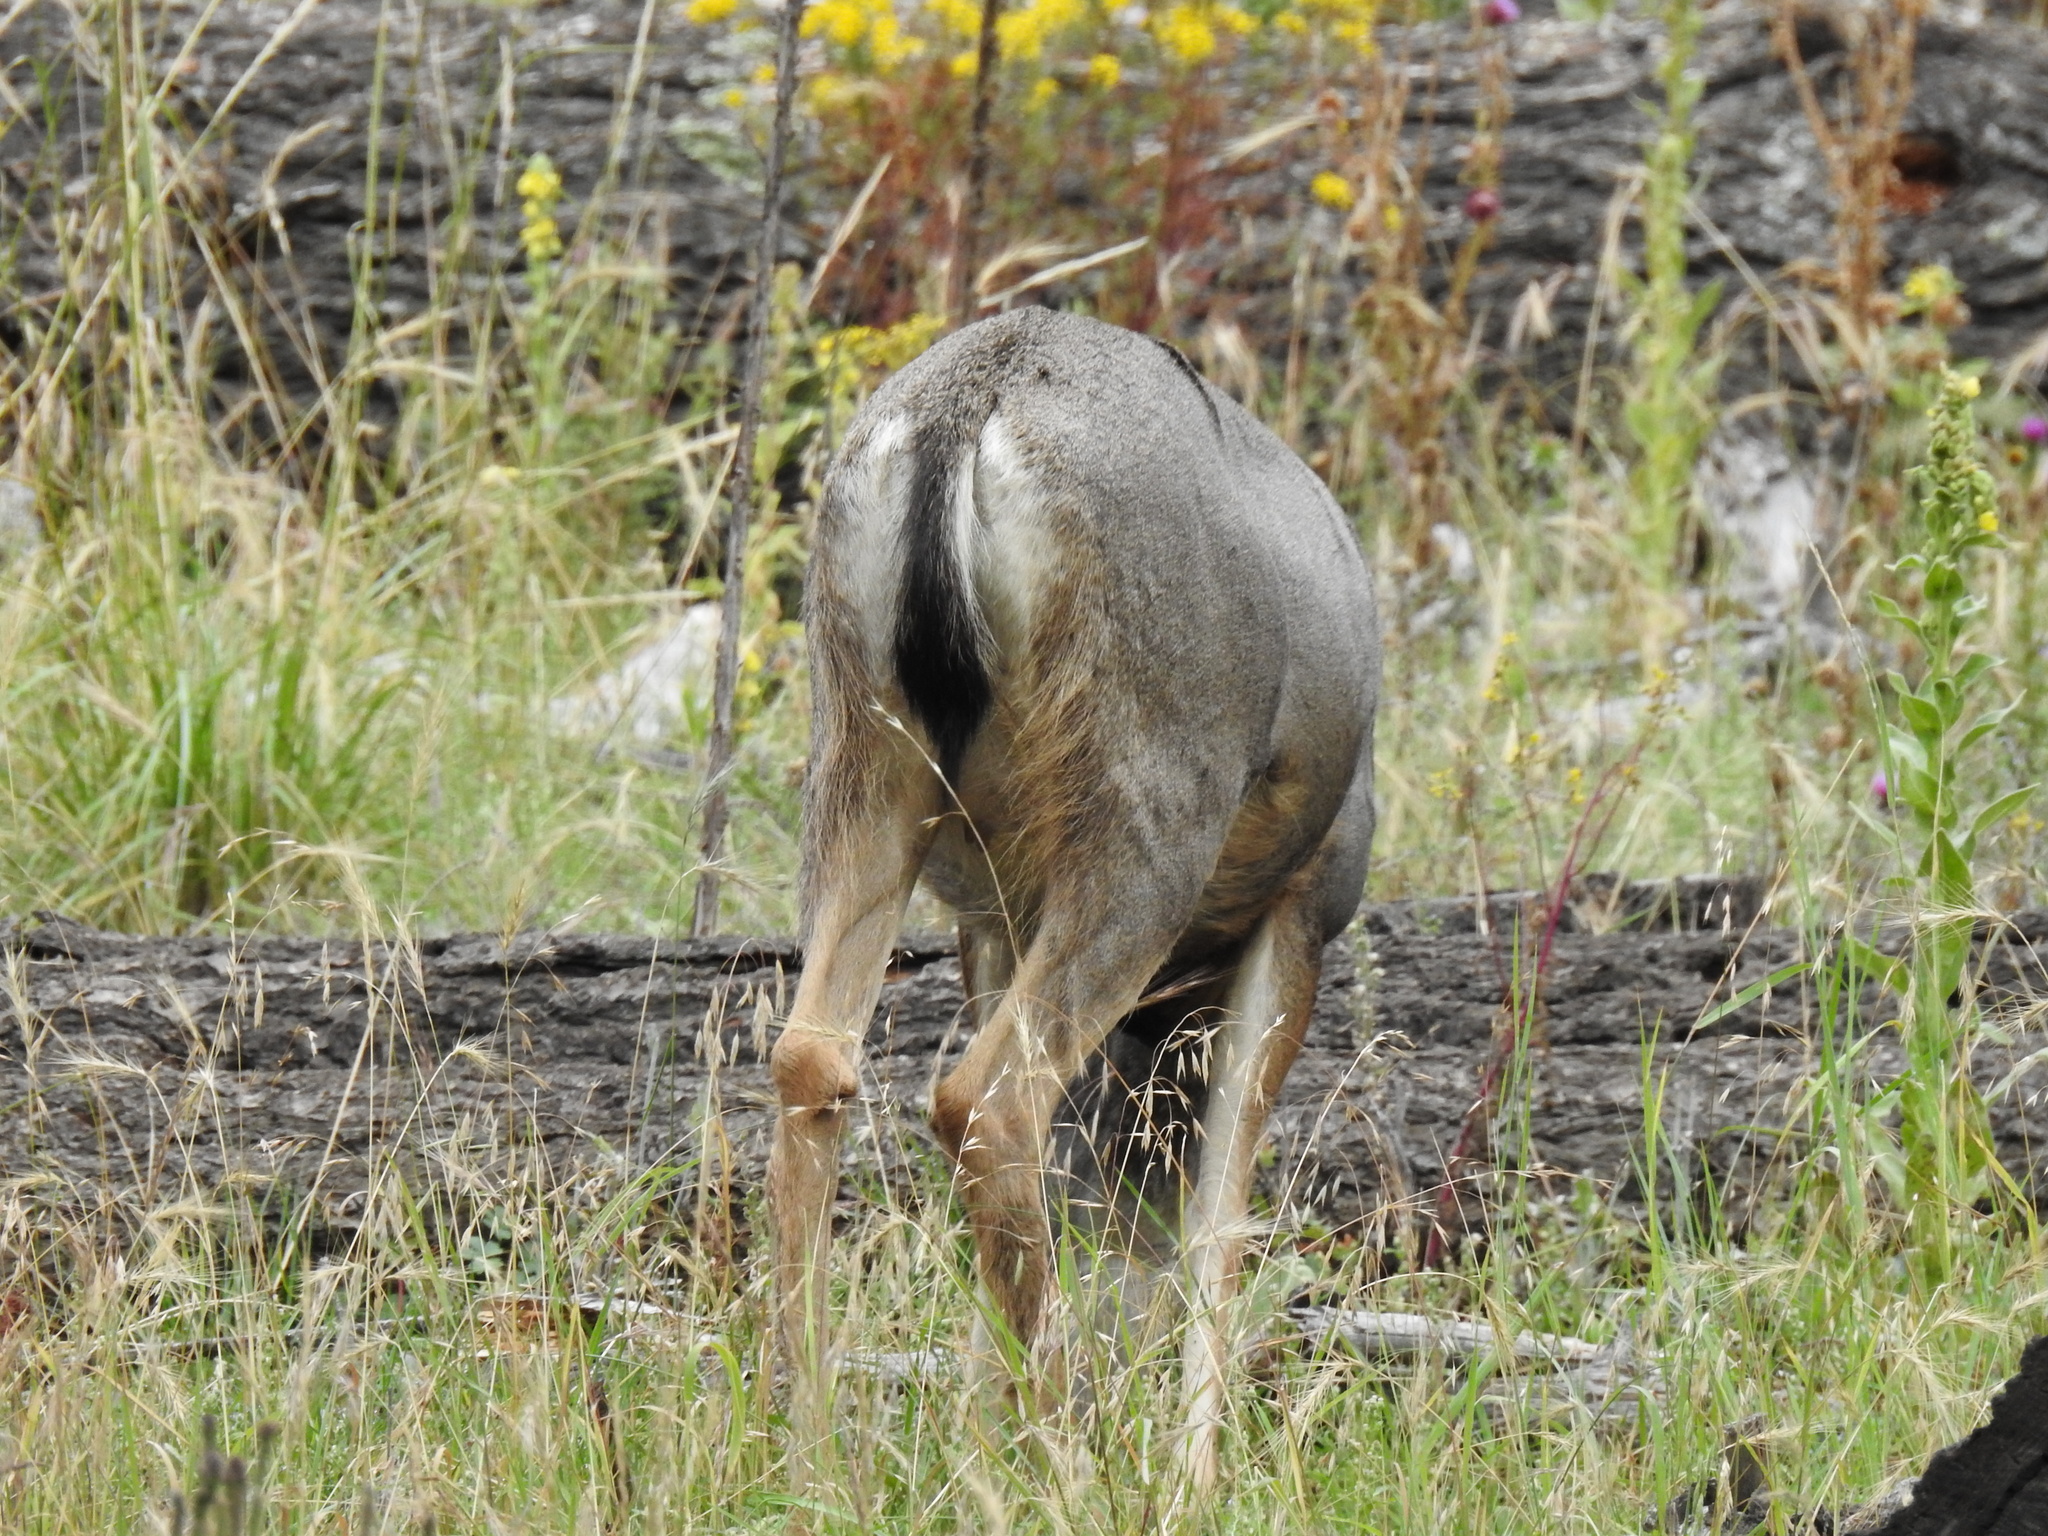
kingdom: Animalia
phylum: Chordata
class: Mammalia
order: Artiodactyla
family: Cervidae
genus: Odocoileus
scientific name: Odocoileus
